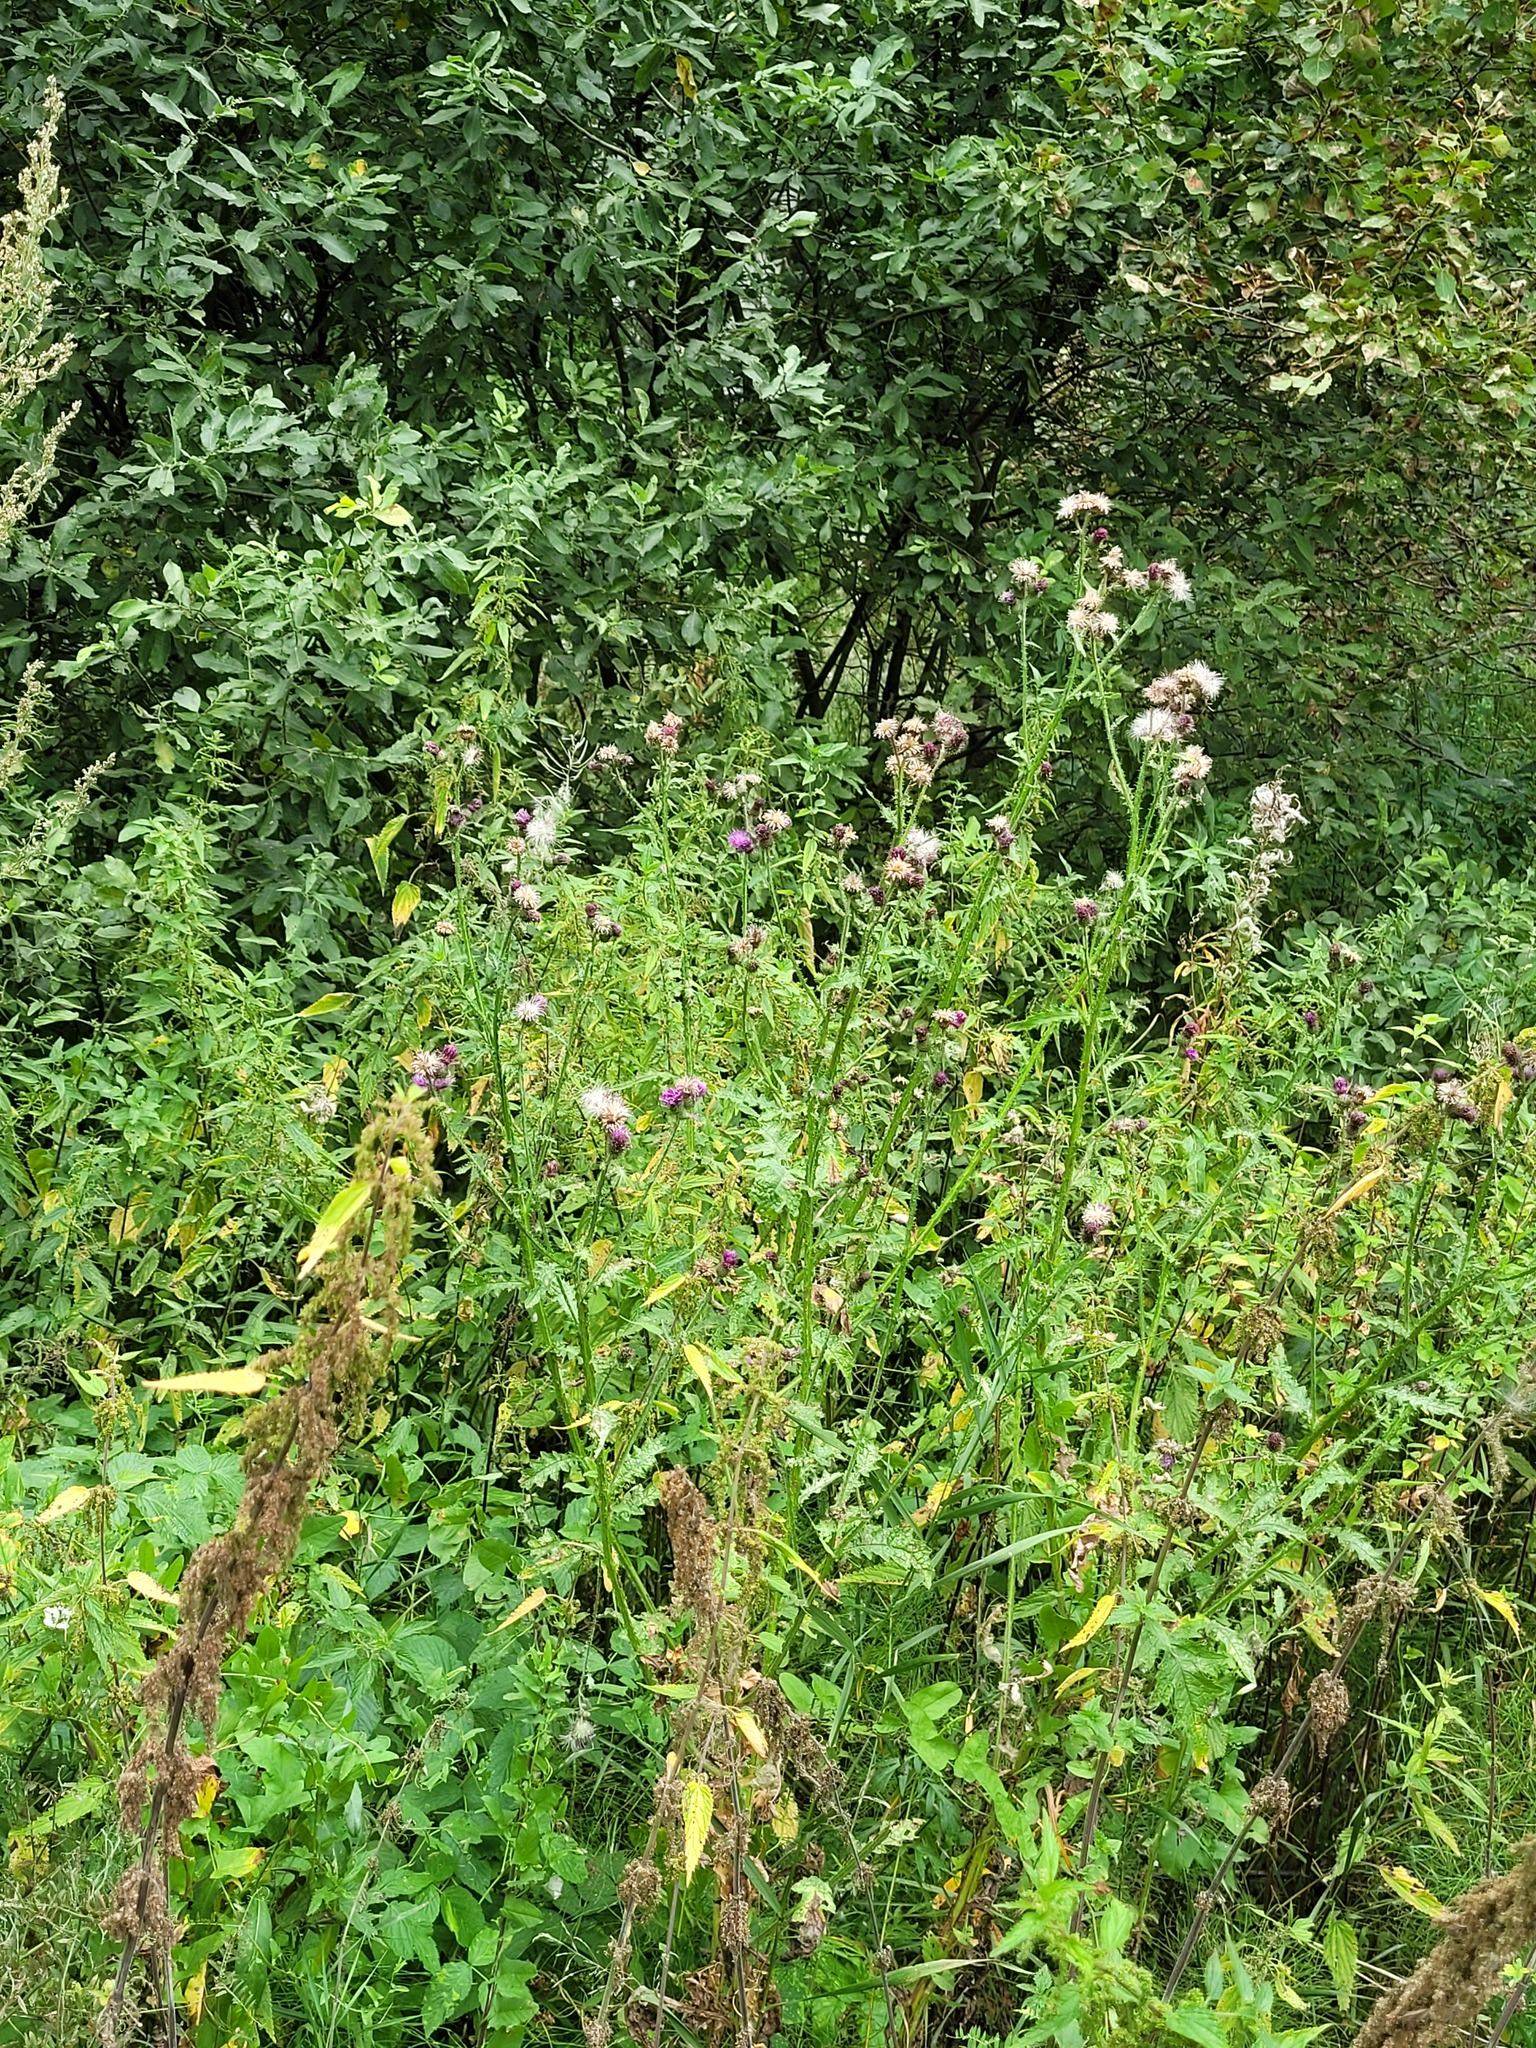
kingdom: Plantae
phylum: Tracheophyta
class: Magnoliopsida
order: Asterales
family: Asteraceae
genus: Carduus
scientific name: Carduus crispus
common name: Welted thistle
